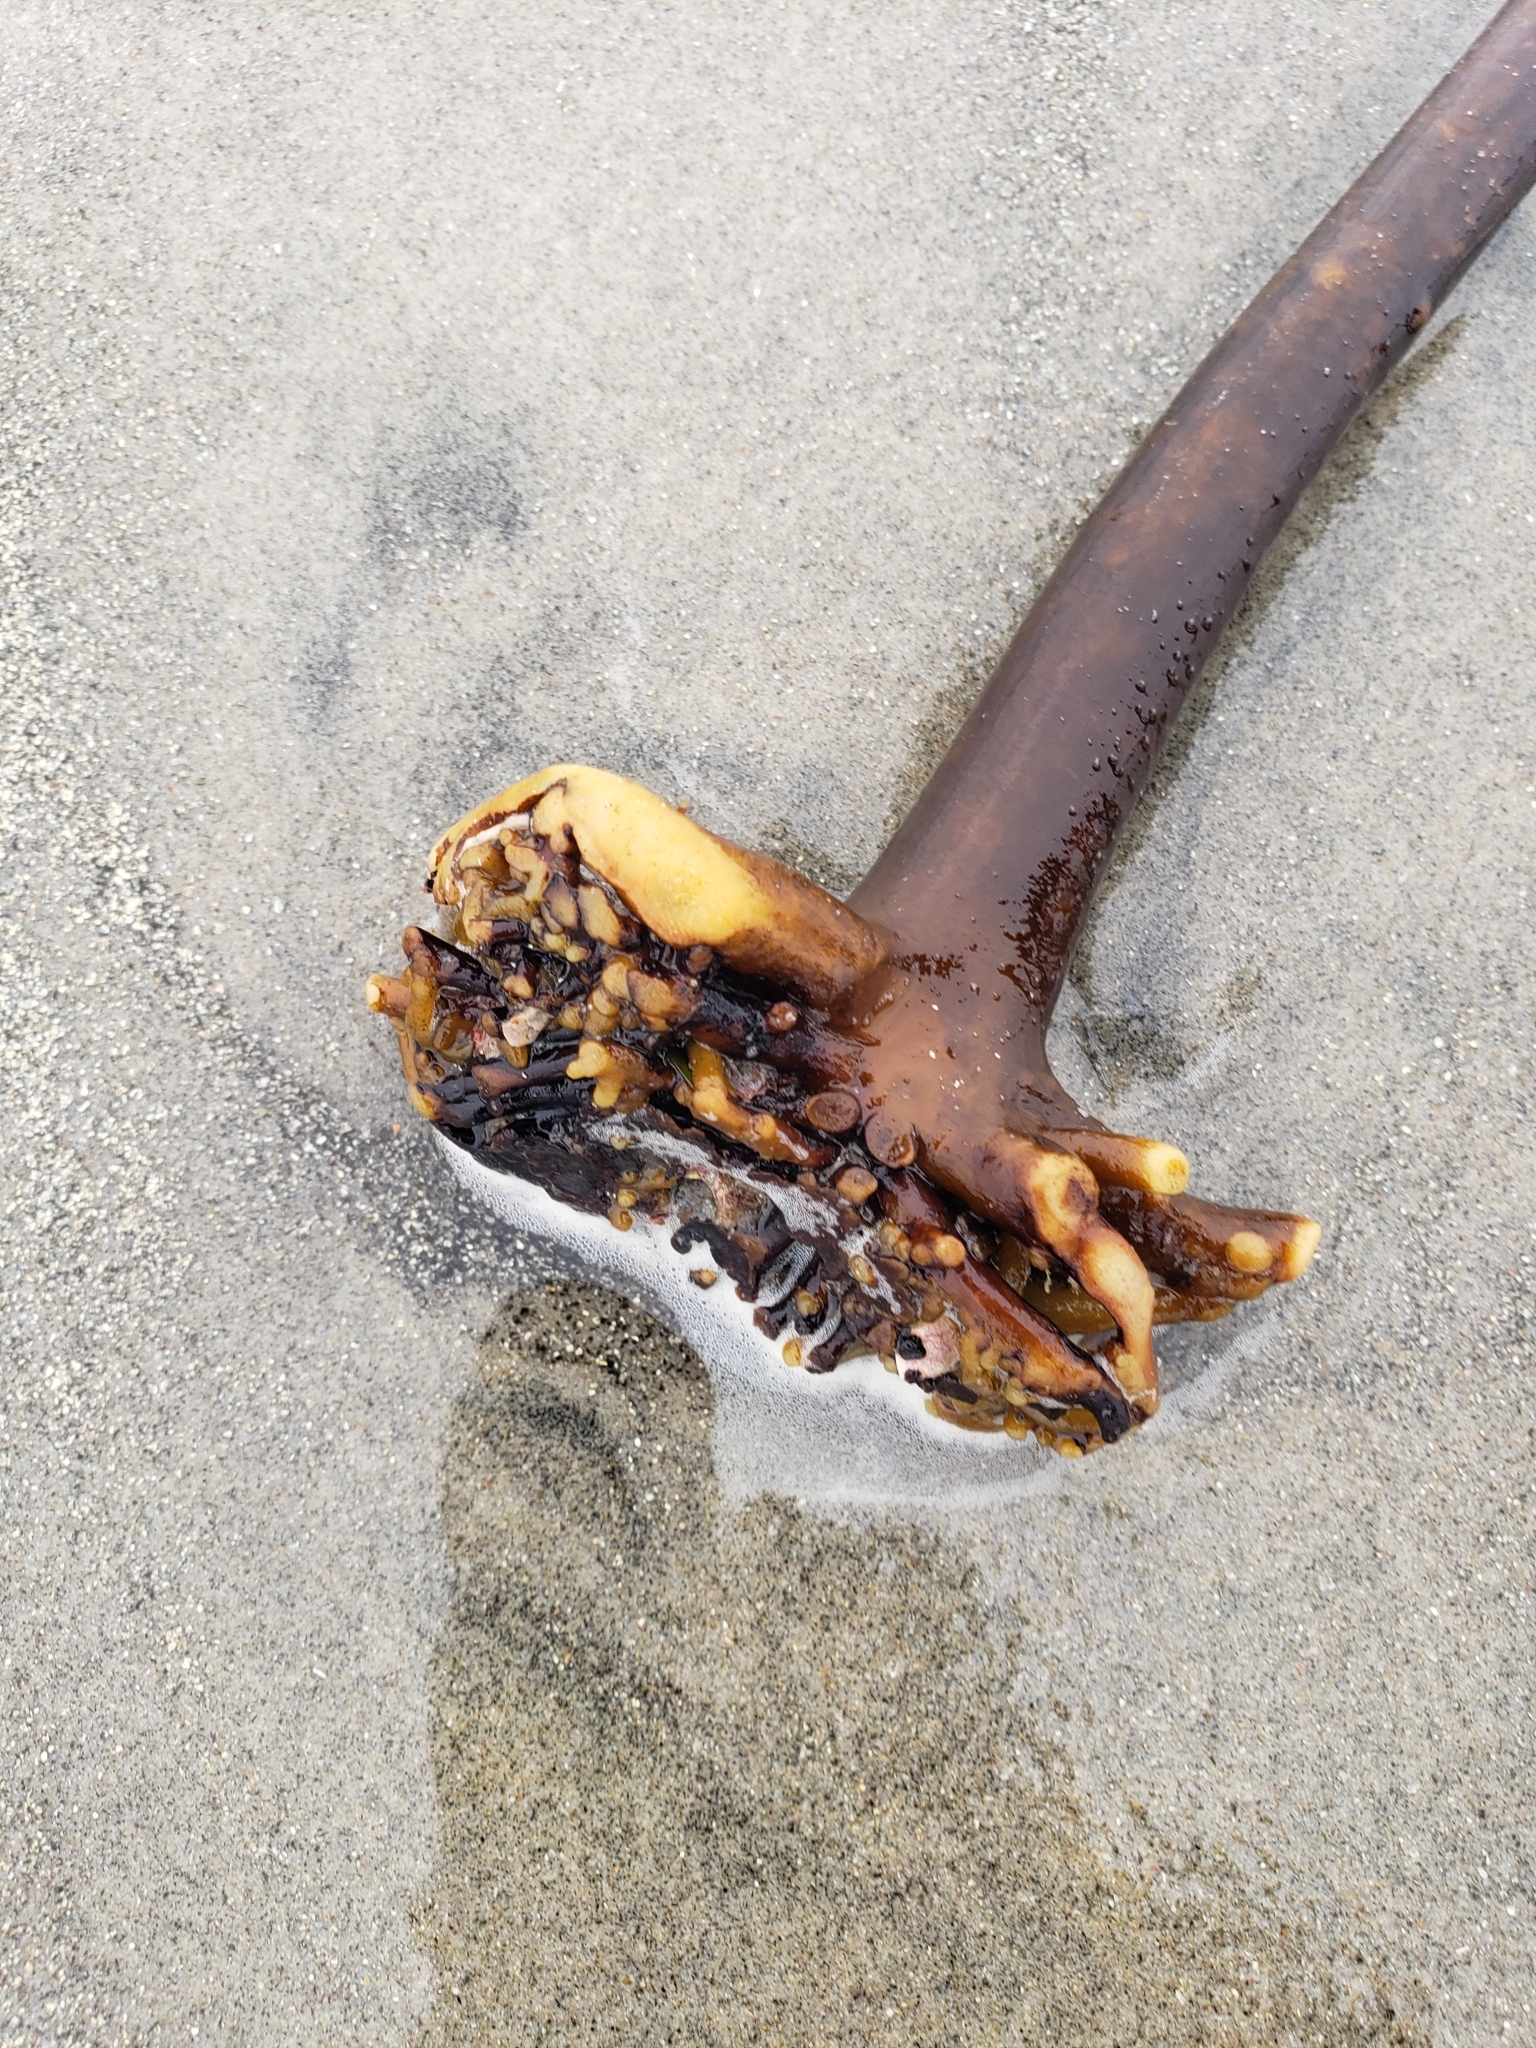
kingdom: Chromista
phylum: Ochrophyta
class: Phaeophyceae
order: Laminariales
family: Alariaceae
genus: Pterygophora
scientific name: Pterygophora californica
